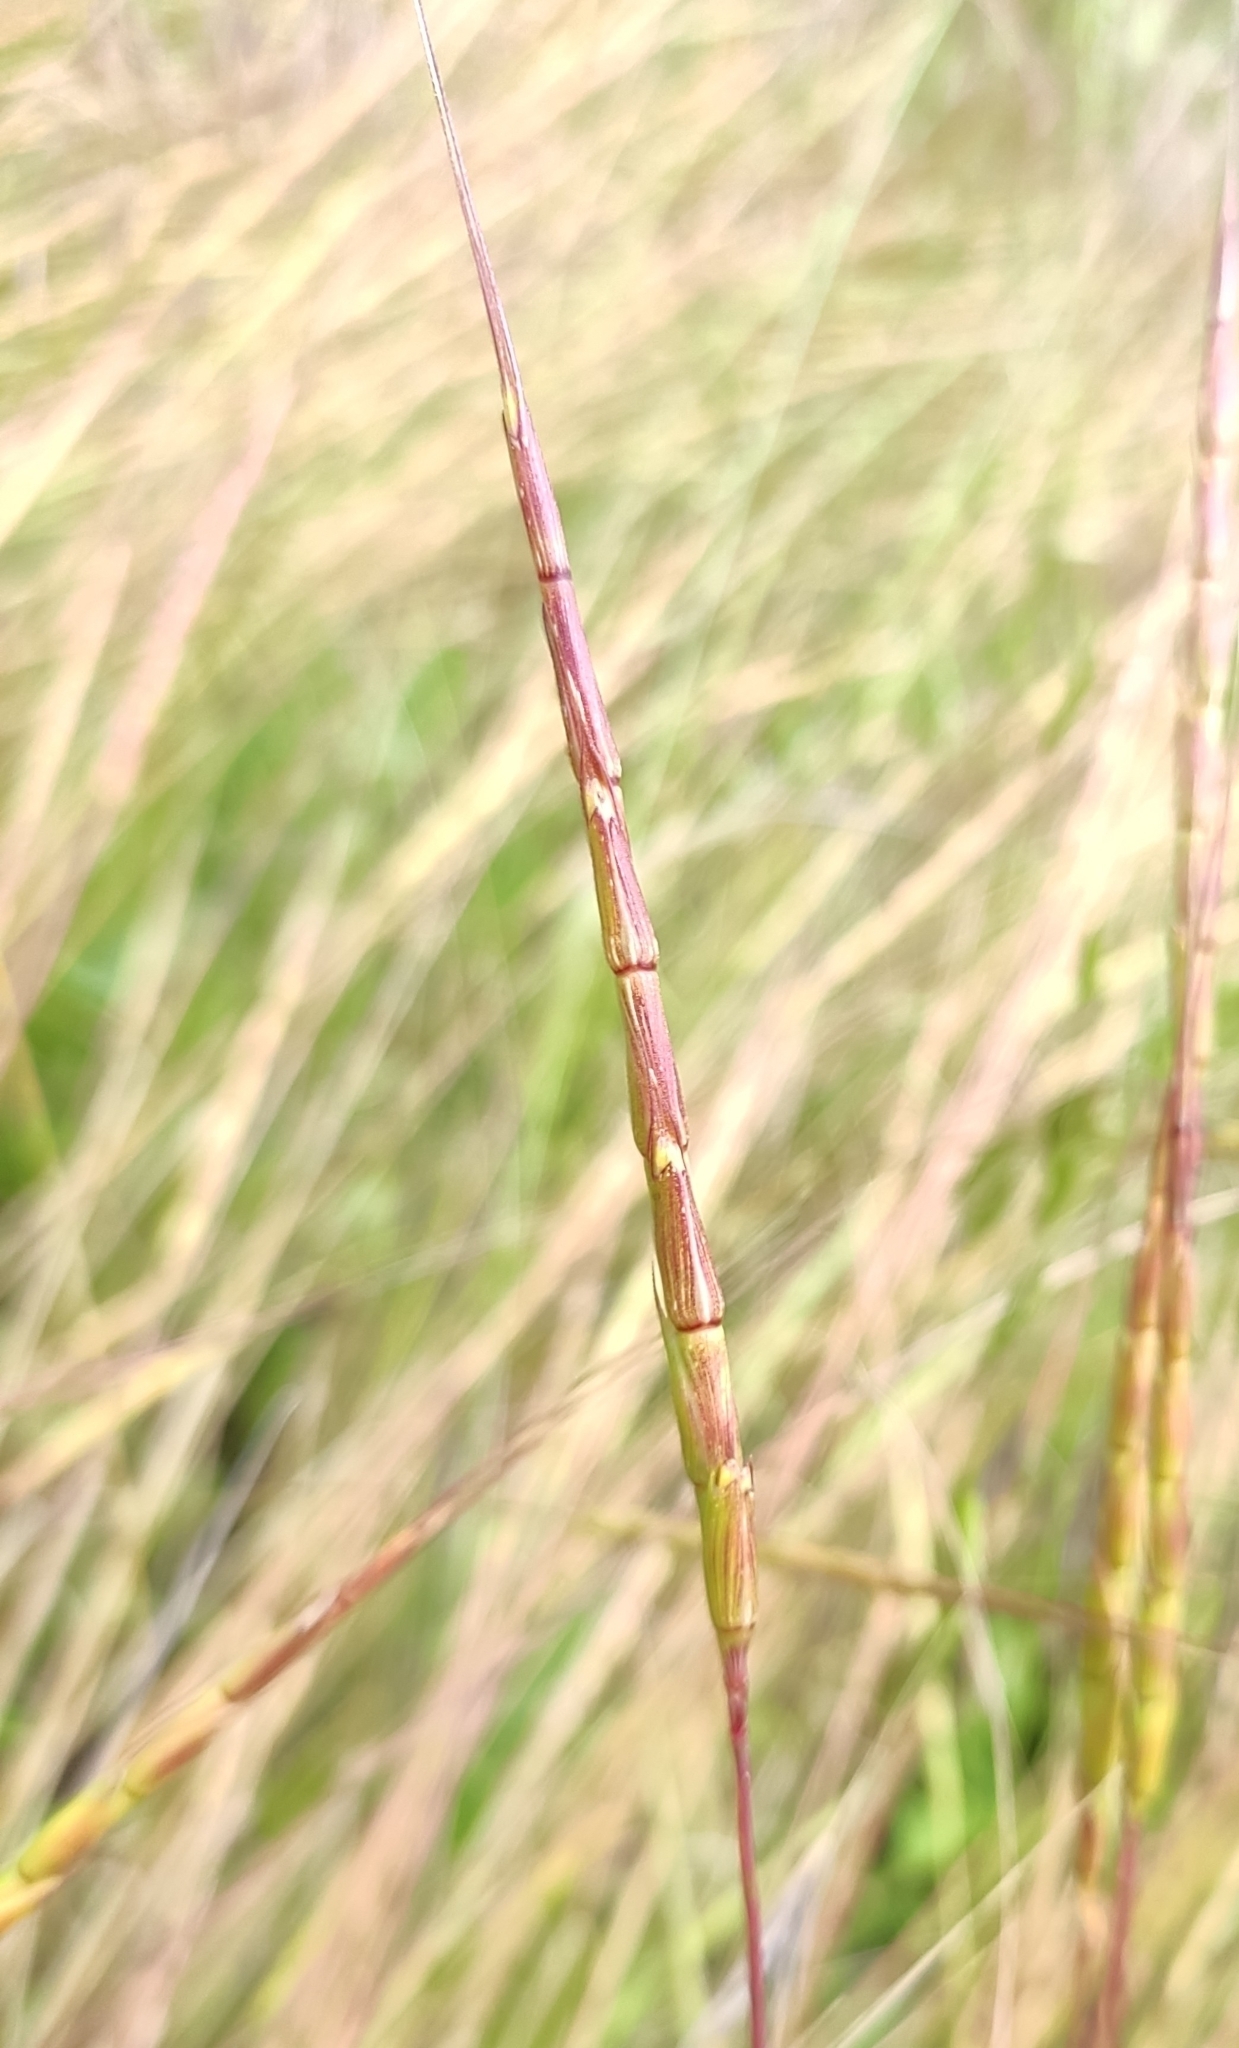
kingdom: Plantae
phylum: Tracheophyta
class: Liliopsida
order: Poales
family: Poaceae
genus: Aegilops
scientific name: Aegilops cylindrica
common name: Jointed goatgrass
